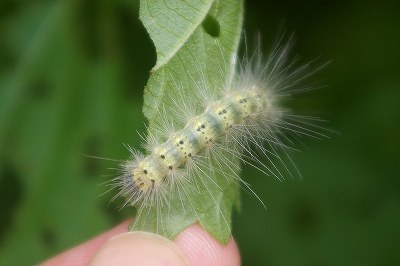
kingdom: Animalia
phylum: Arthropoda
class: Insecta
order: Lepidoptera
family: Erebidae
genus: Hyphantria
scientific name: Hyphantria cunea
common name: American white moth
